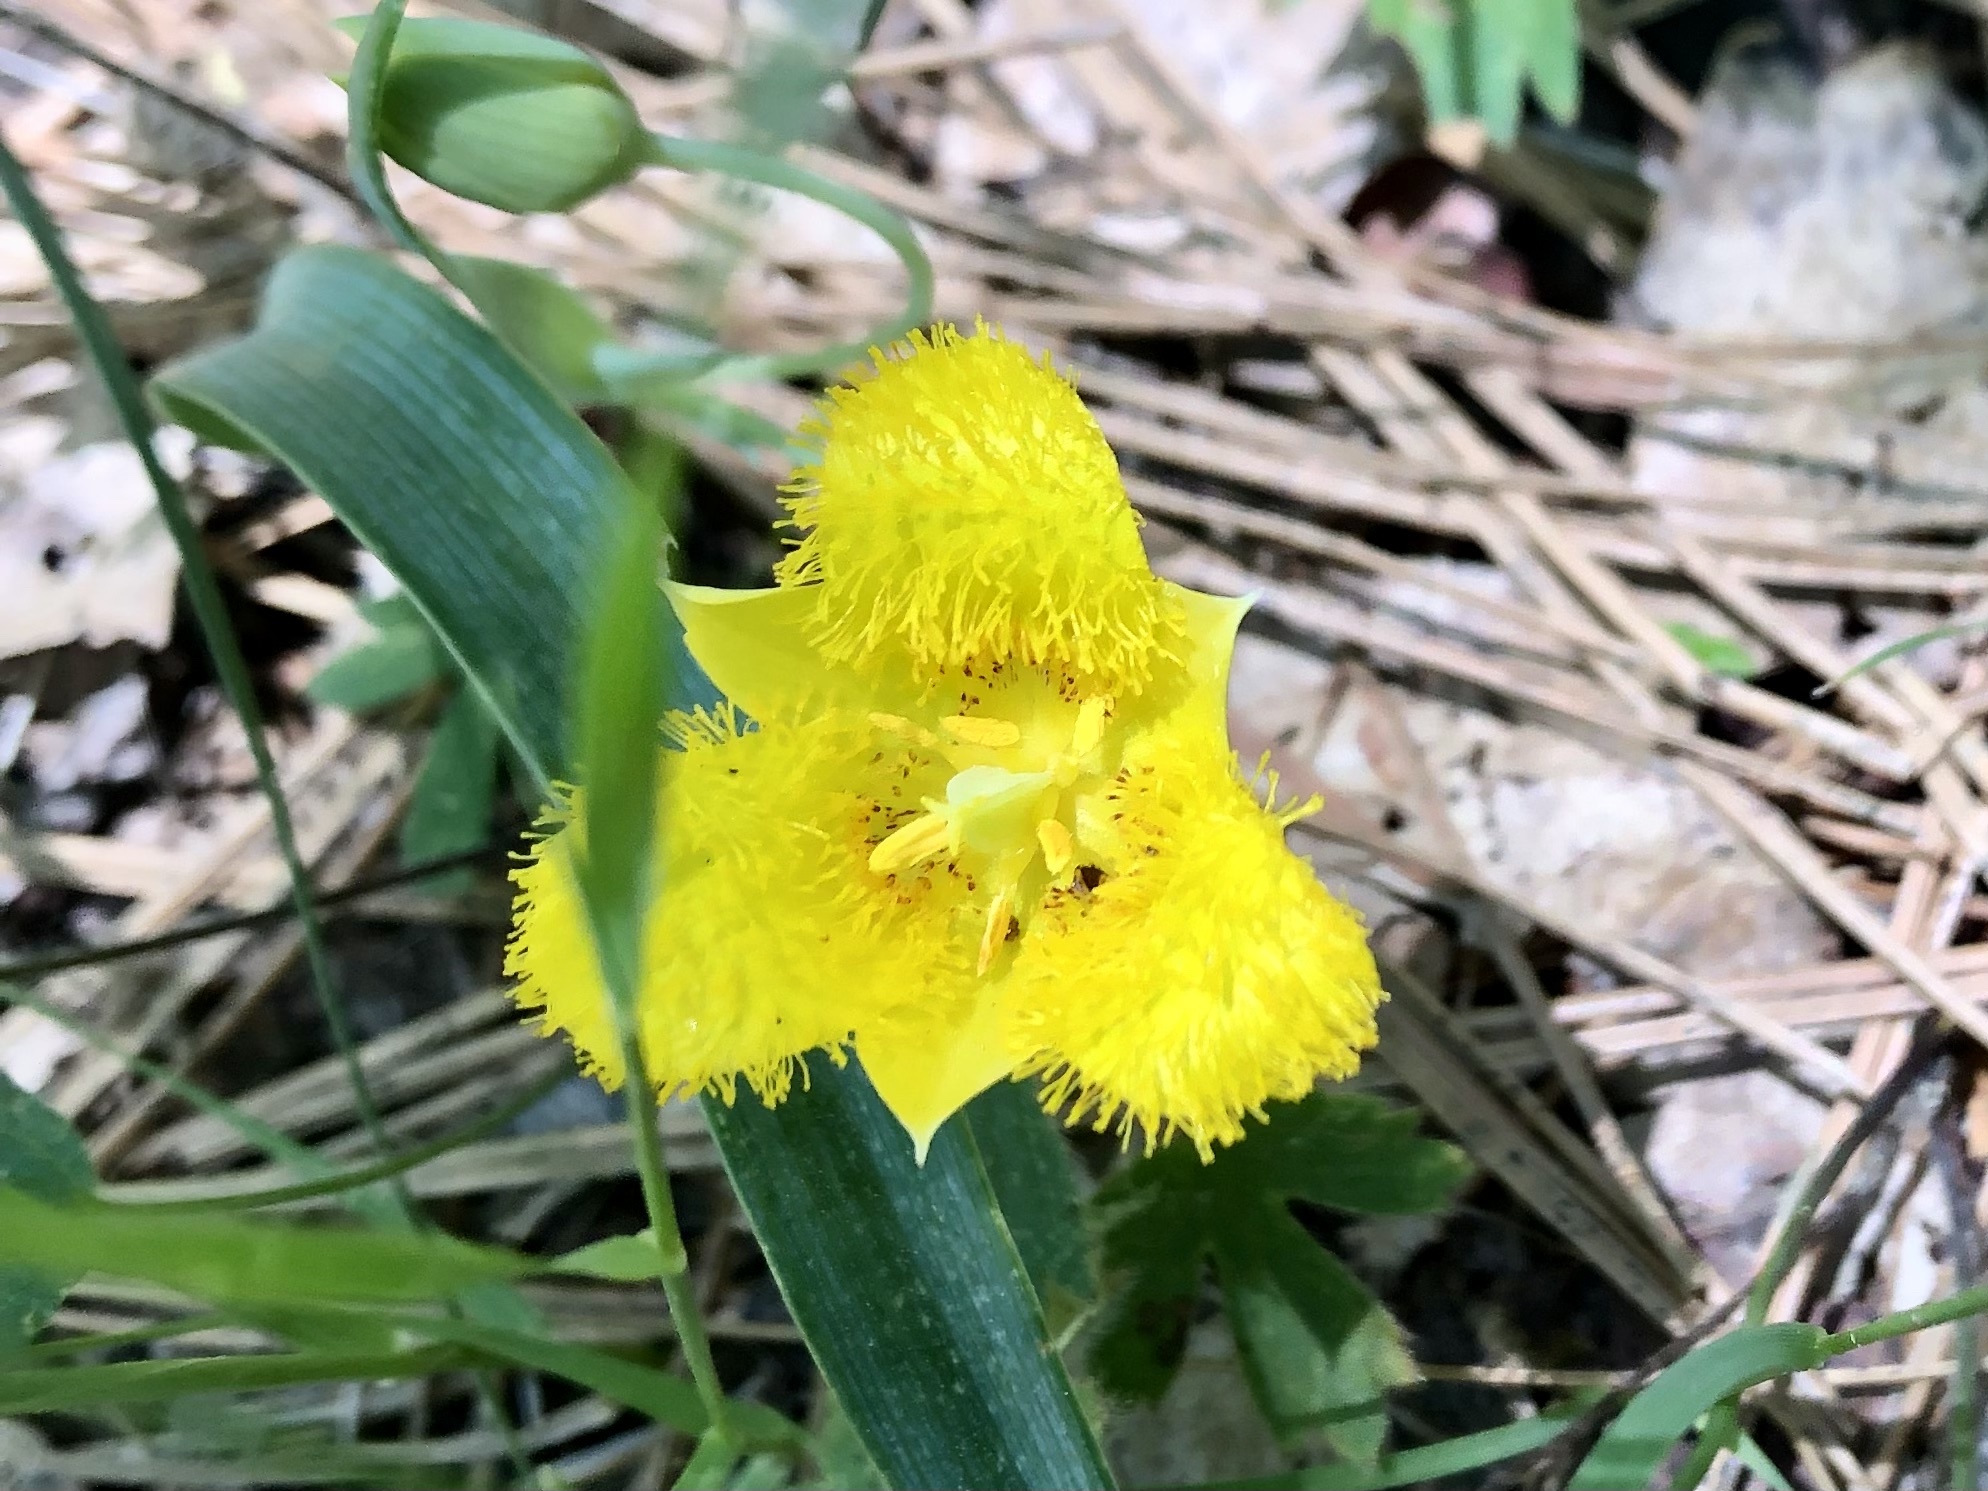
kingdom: Plantae
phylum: Tracheophyta
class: Liliopsida
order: Liliales
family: Liliaceae
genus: Calochortus
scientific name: Calochortus monophyllus
